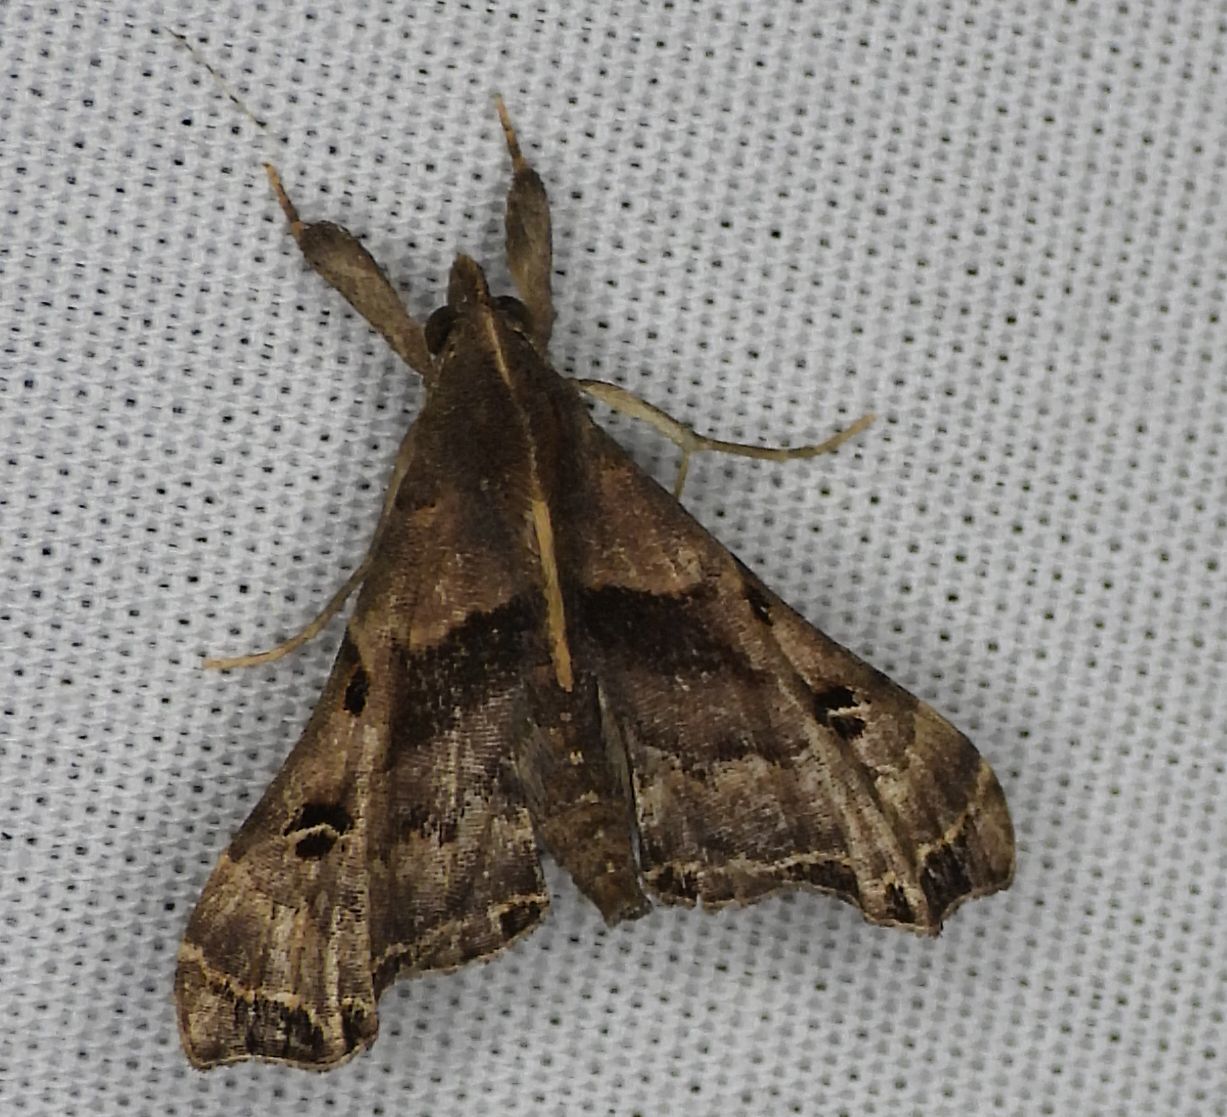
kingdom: Animalia
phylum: Arthropoda
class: Insecta
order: Lepidoptera
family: Erebidae
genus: Palthis
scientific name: Palthis asopialis
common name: Faint-spotted palthis moth
